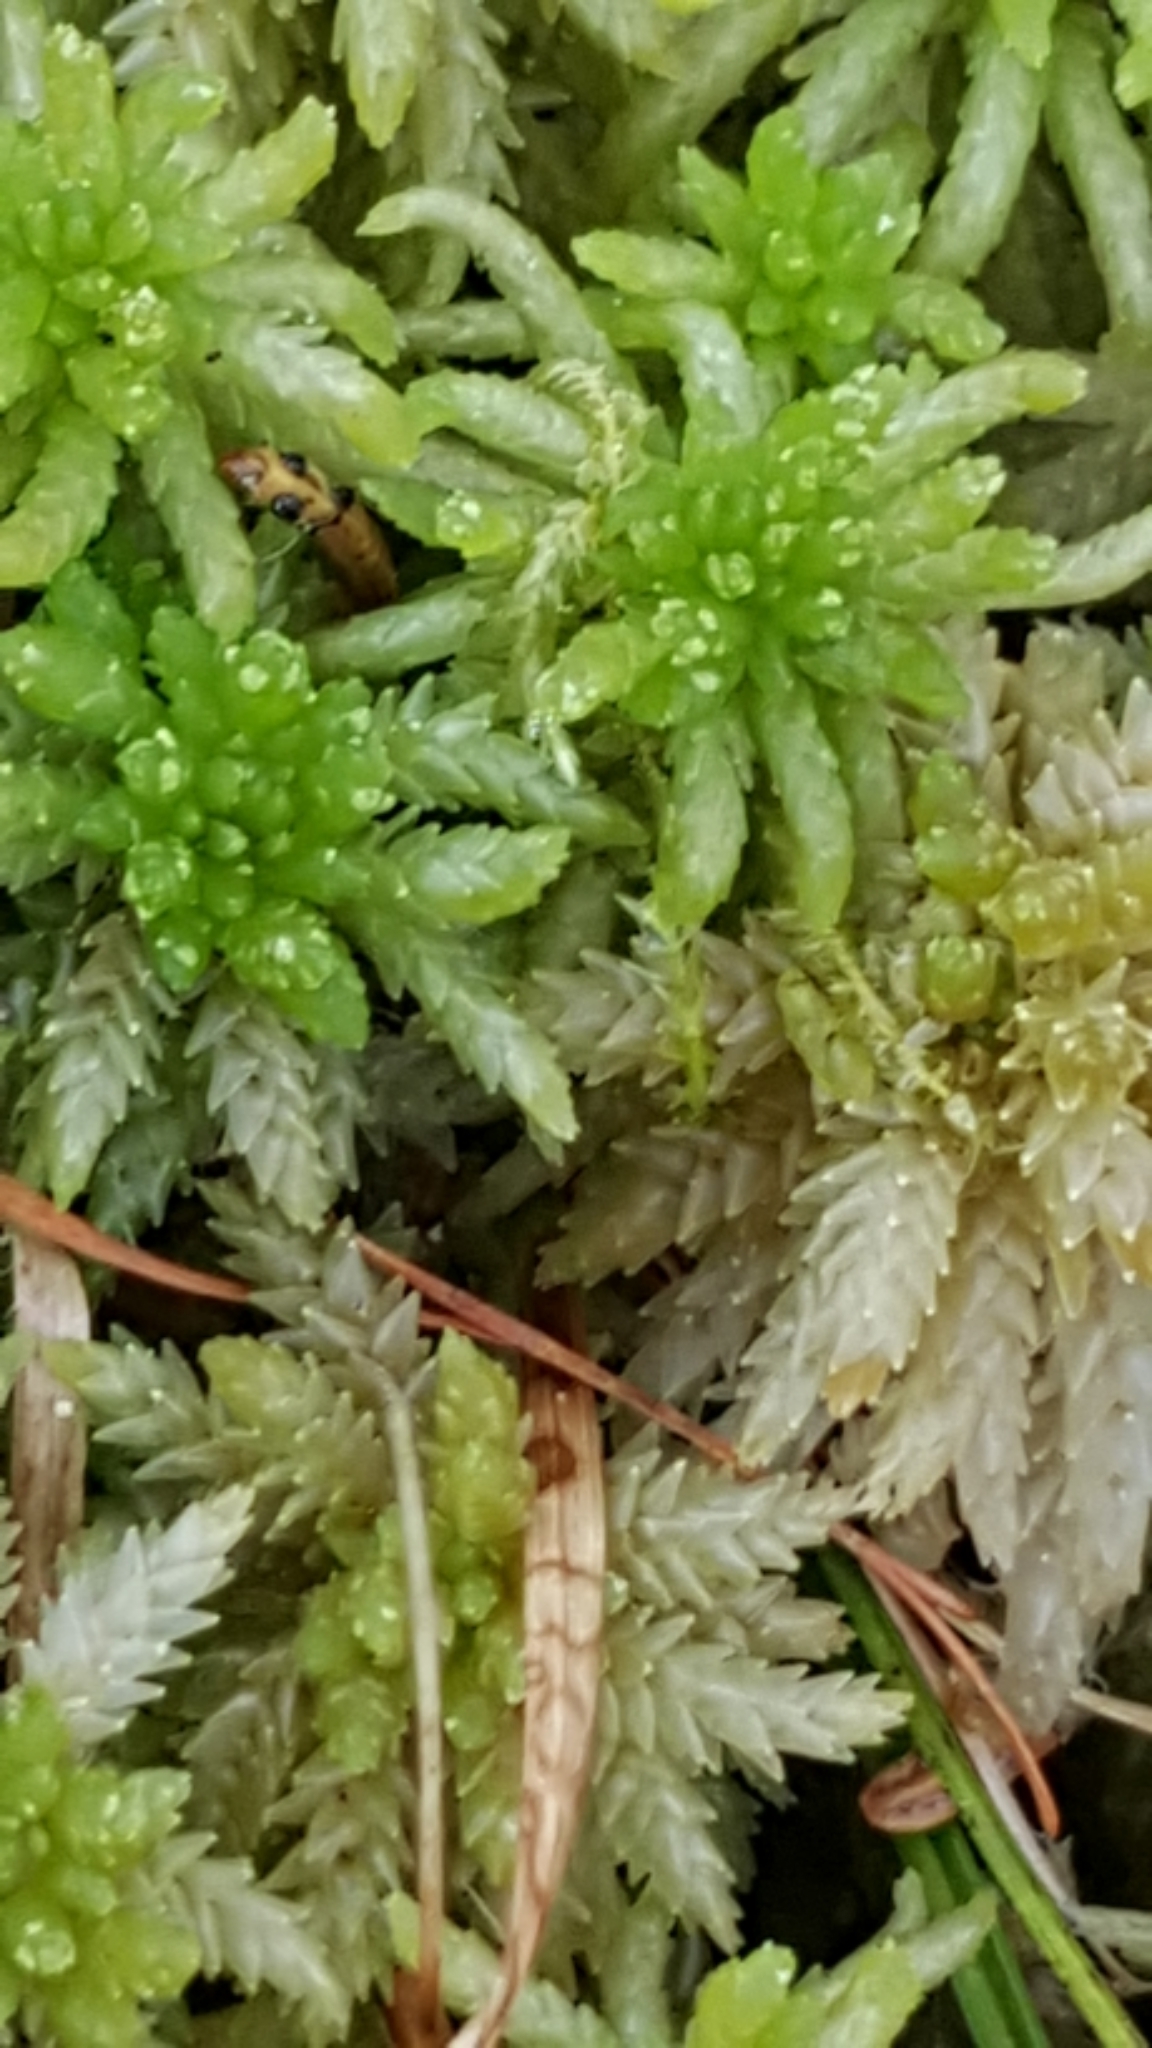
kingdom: Plantae
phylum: Bryophyta
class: Sphagnopsida
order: Sphagnales
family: Sphagnaceae
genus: Sphagnum
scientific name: Sphagnum
